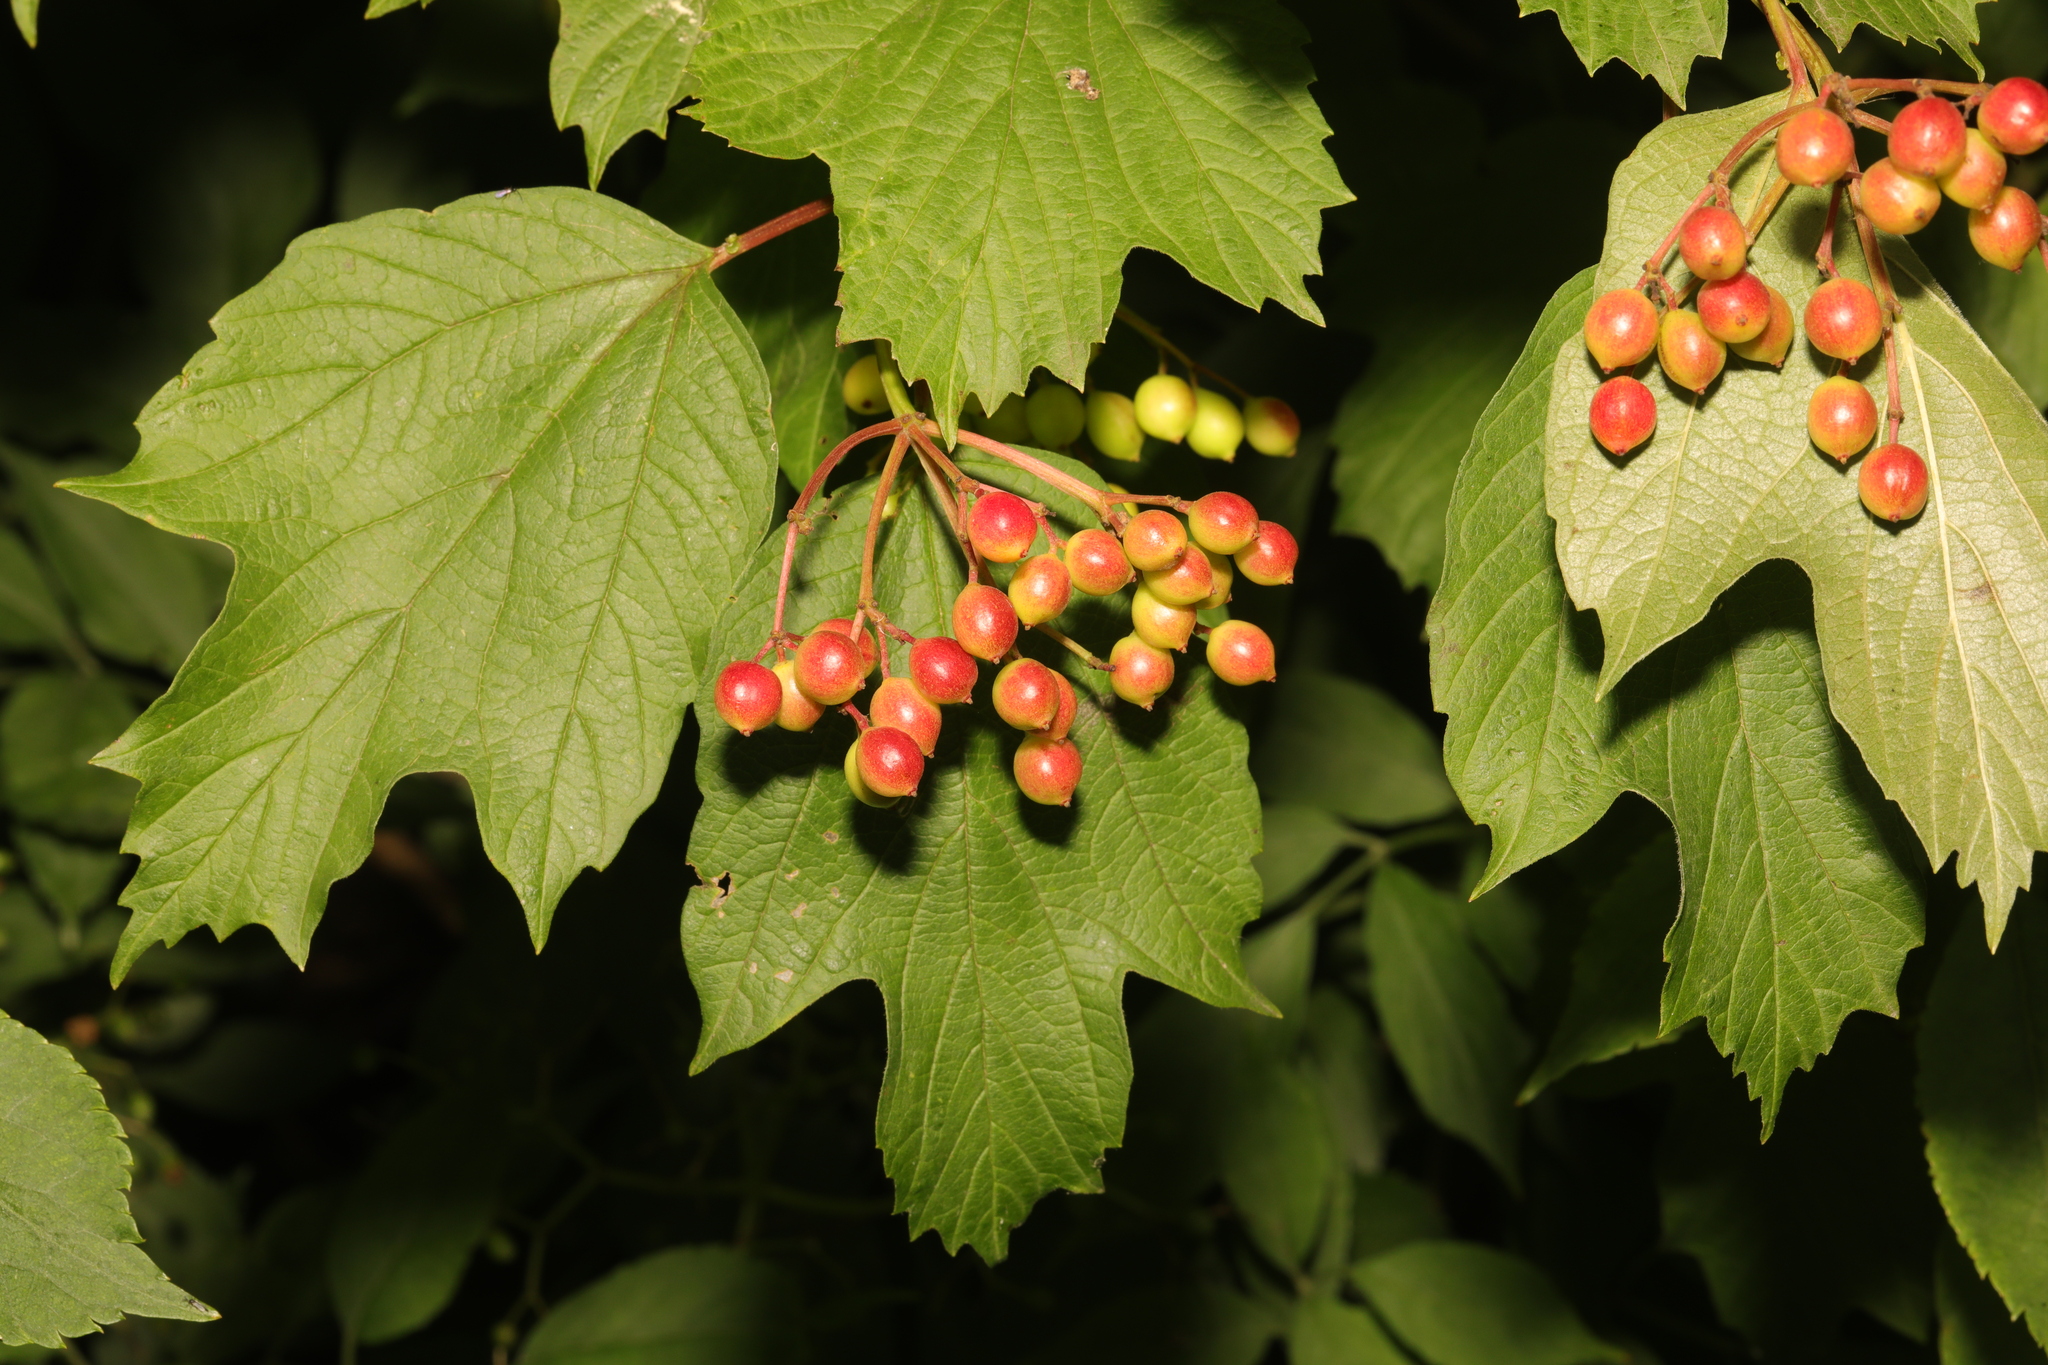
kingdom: Plantae
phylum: Tracheophyta
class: Magnoliopsida
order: Dipsacales
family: Viburnaceae
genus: Viburnum
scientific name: Viburnum opulus
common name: Guelder-rose
